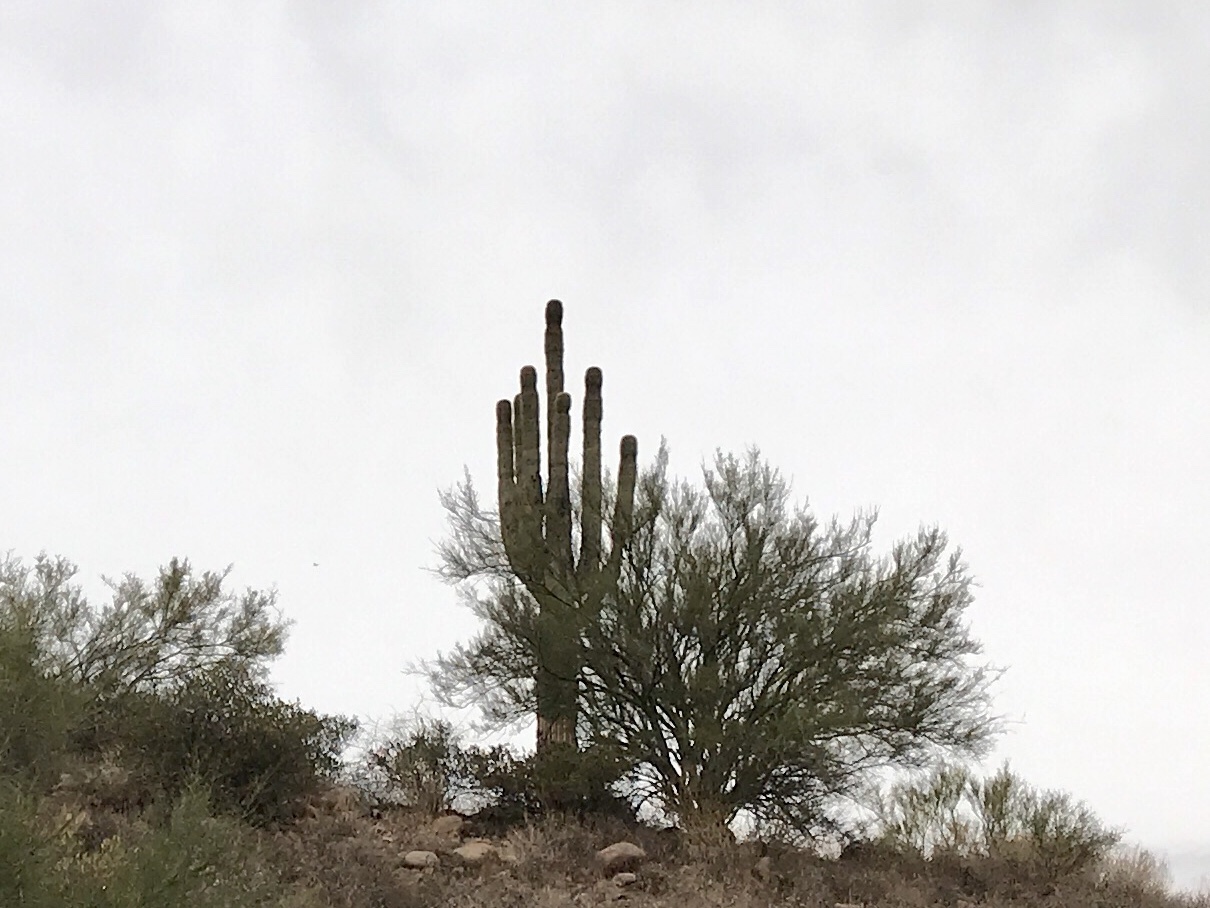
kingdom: Plantae
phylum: Tracheophyta
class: Magnoliopsida
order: Caryophyllales
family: Cactaceae
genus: Carnegiea
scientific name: Carnegiea gigantea
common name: Saguaro
